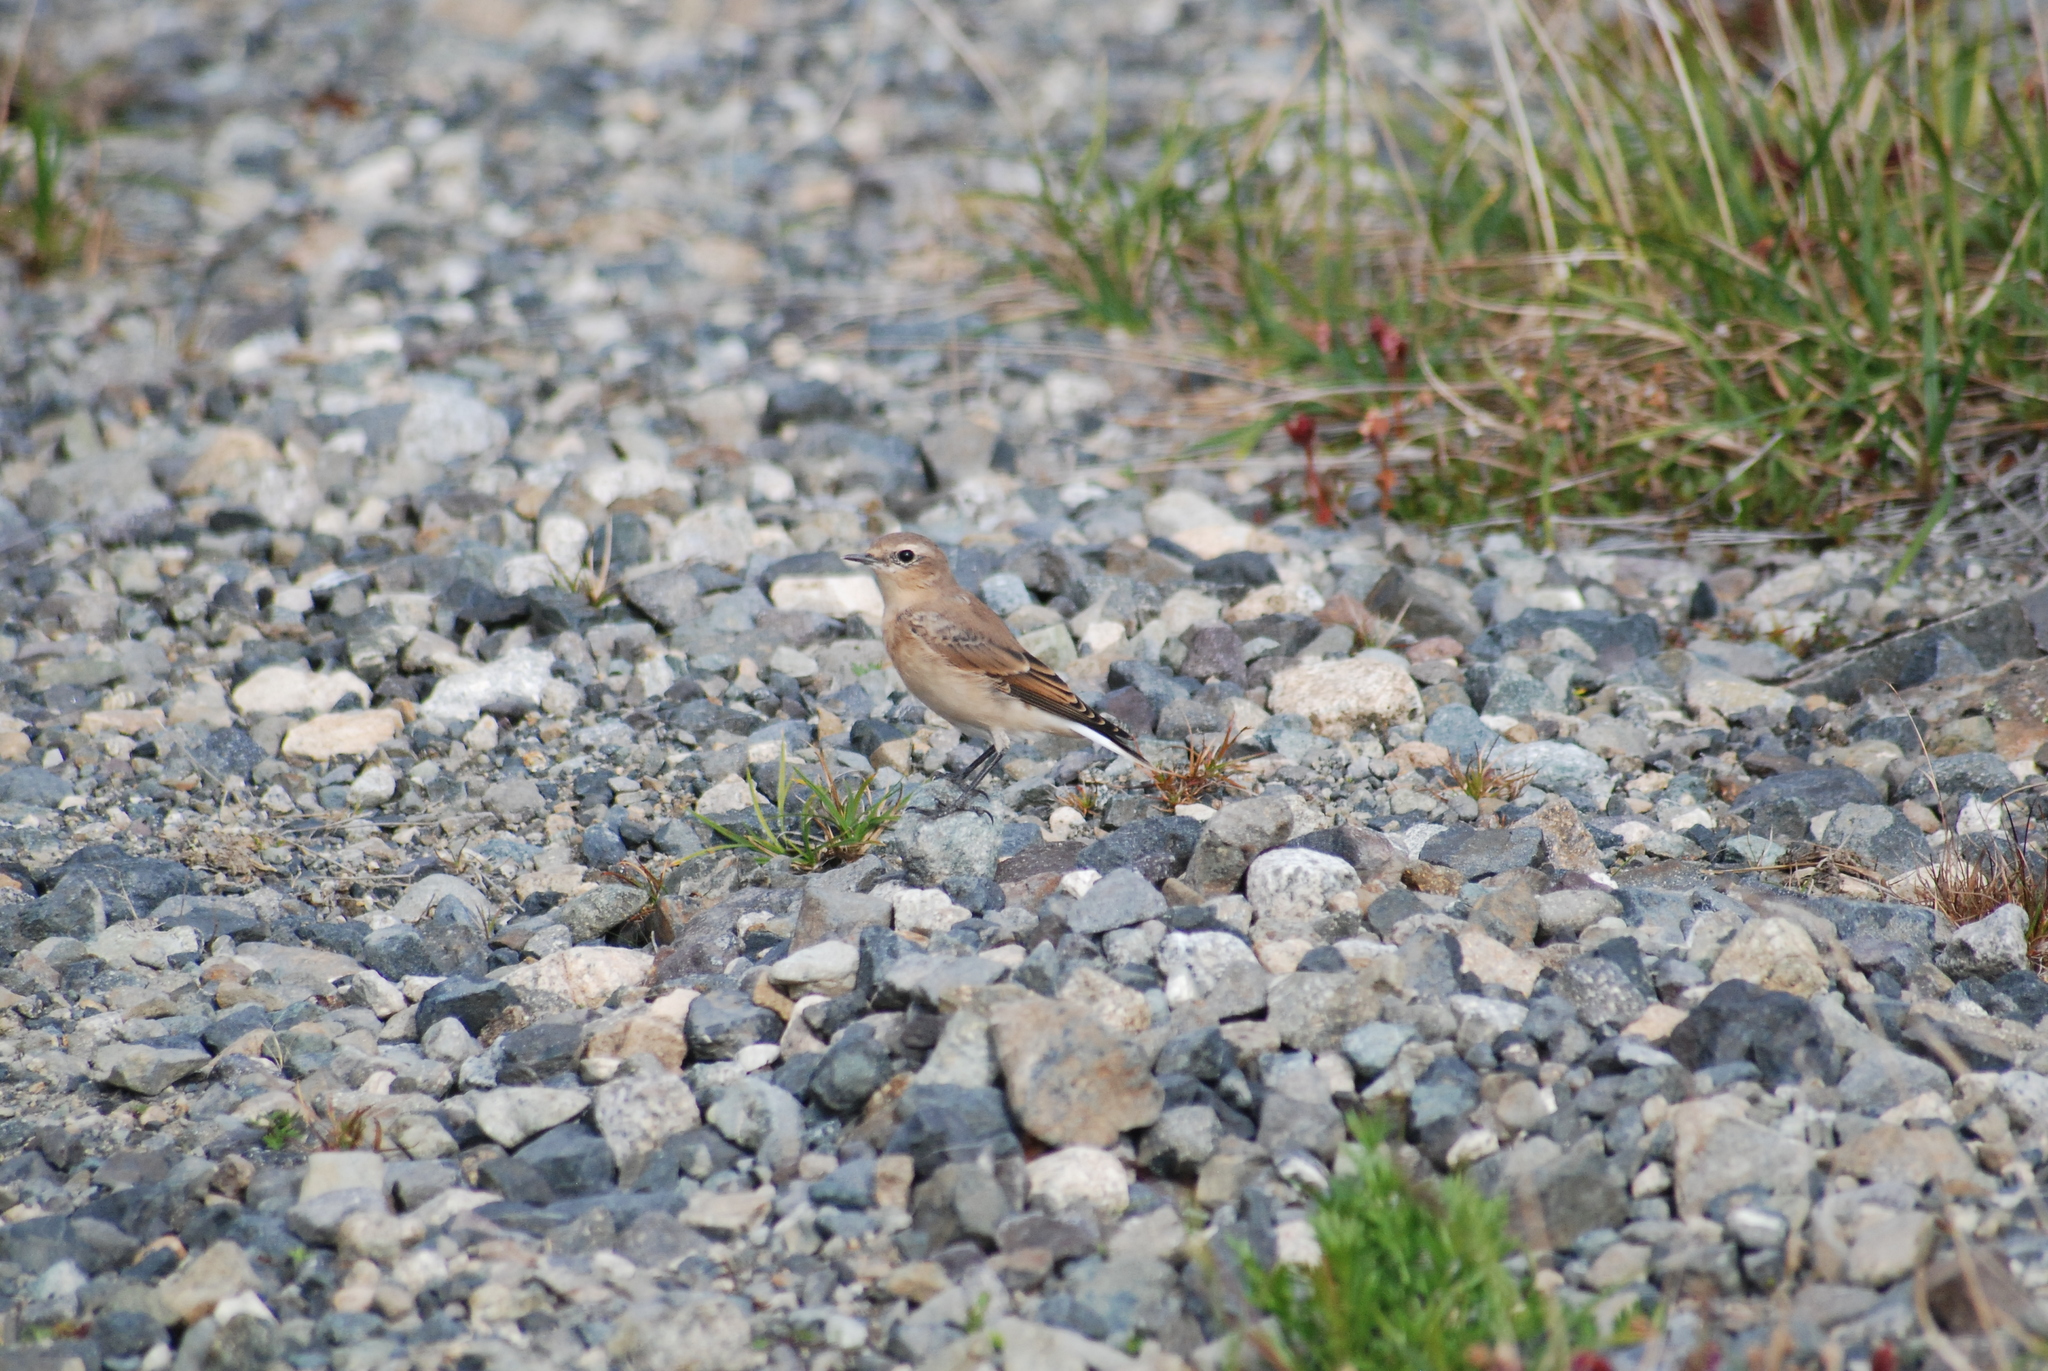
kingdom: Animalia
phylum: Chordata
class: Aves
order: Passeriformes
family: Muscicapidae
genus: Oenanthe
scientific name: Oenanthe oenanthe
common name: Northern wheatear
